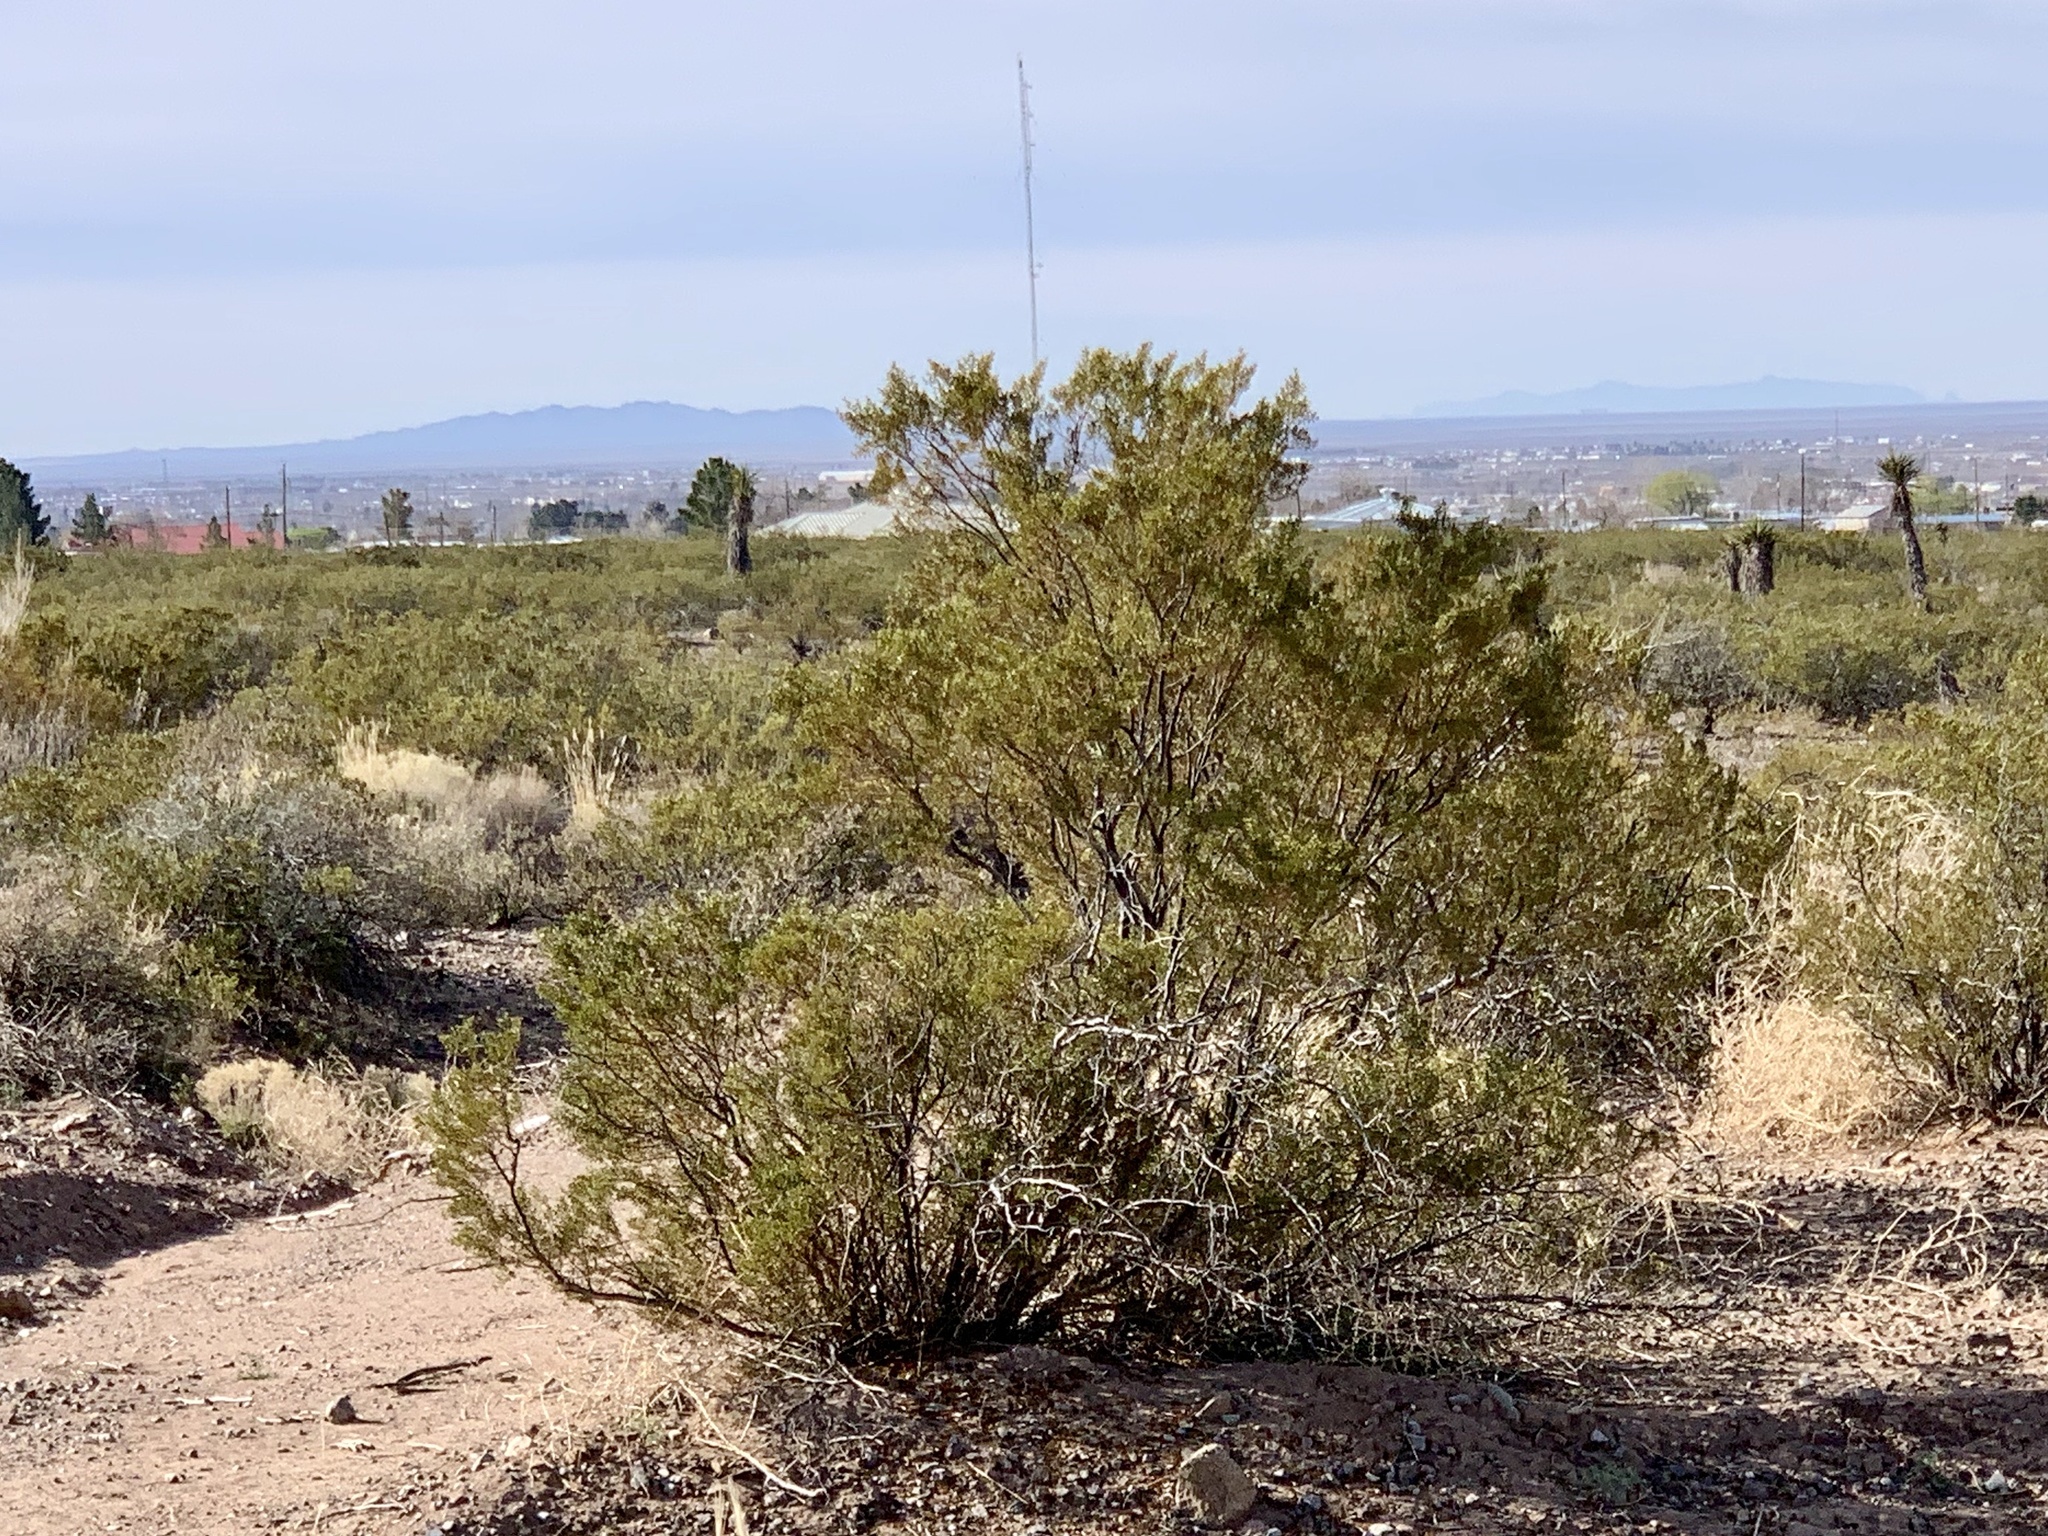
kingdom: Plantae
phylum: Tracheophyta
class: Magnoliopsida
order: Zygophyllales
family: Zygophyllaceae
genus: Larrea
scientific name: Larrea tridentata
